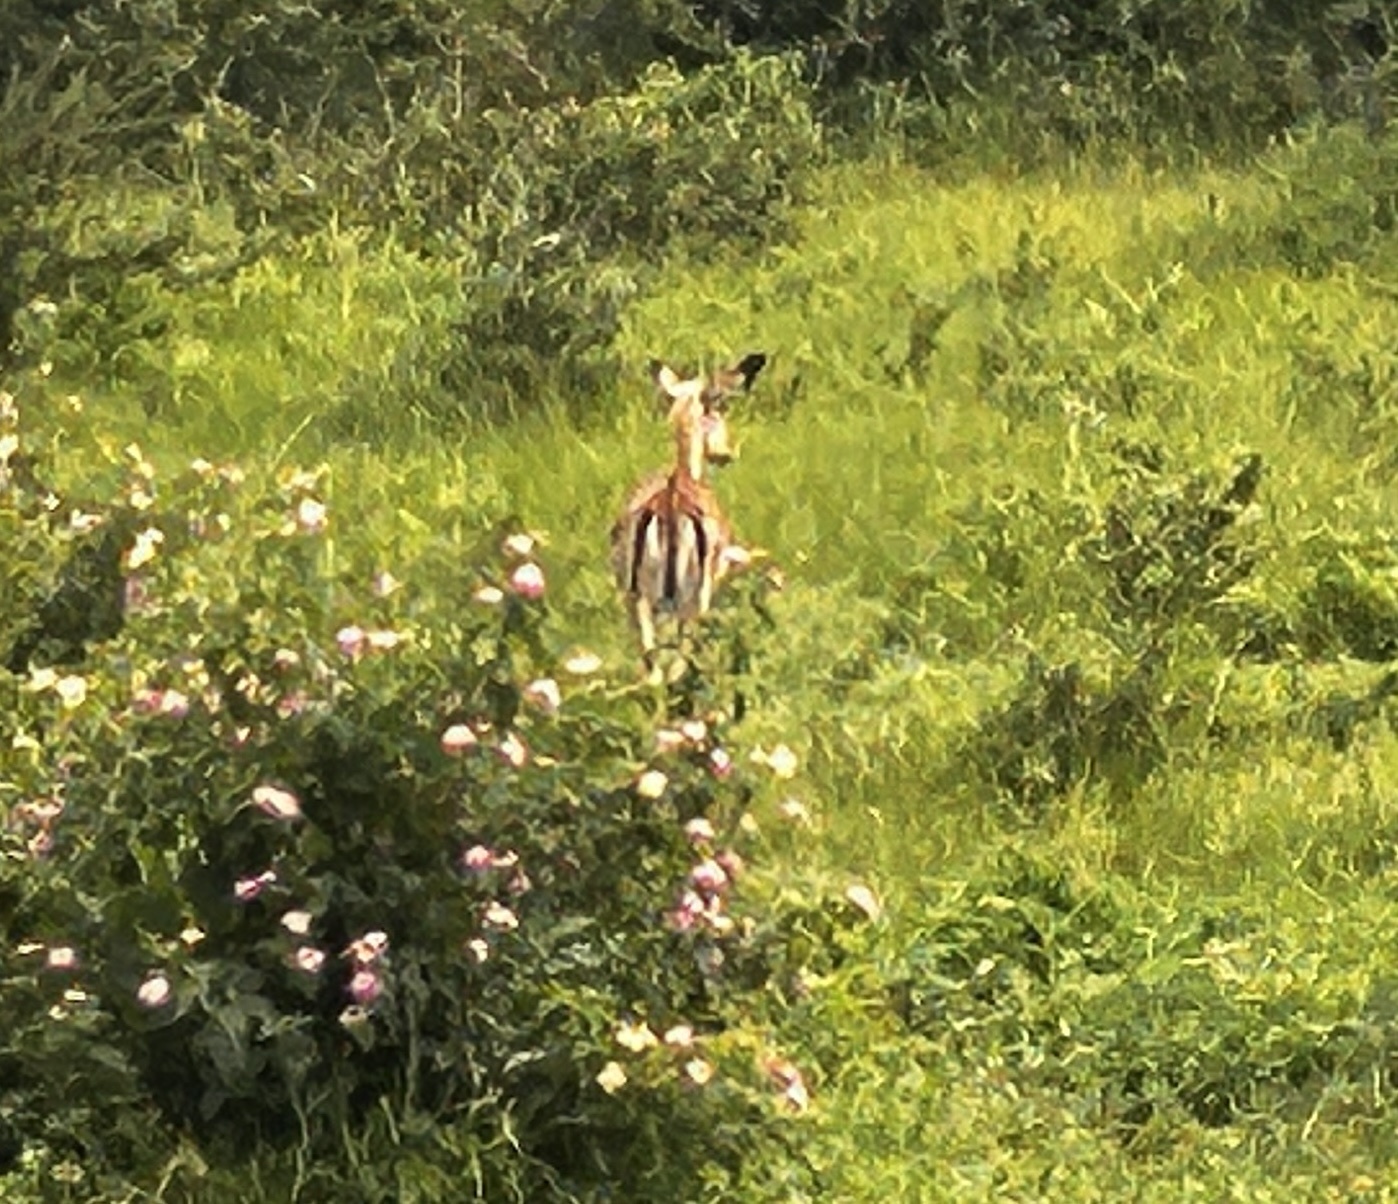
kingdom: Animalia
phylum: Chordata
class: Mammalia
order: Artiodactyla
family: Bovidae
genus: Aepyceros
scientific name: Aepyceros melampus
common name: Impala
